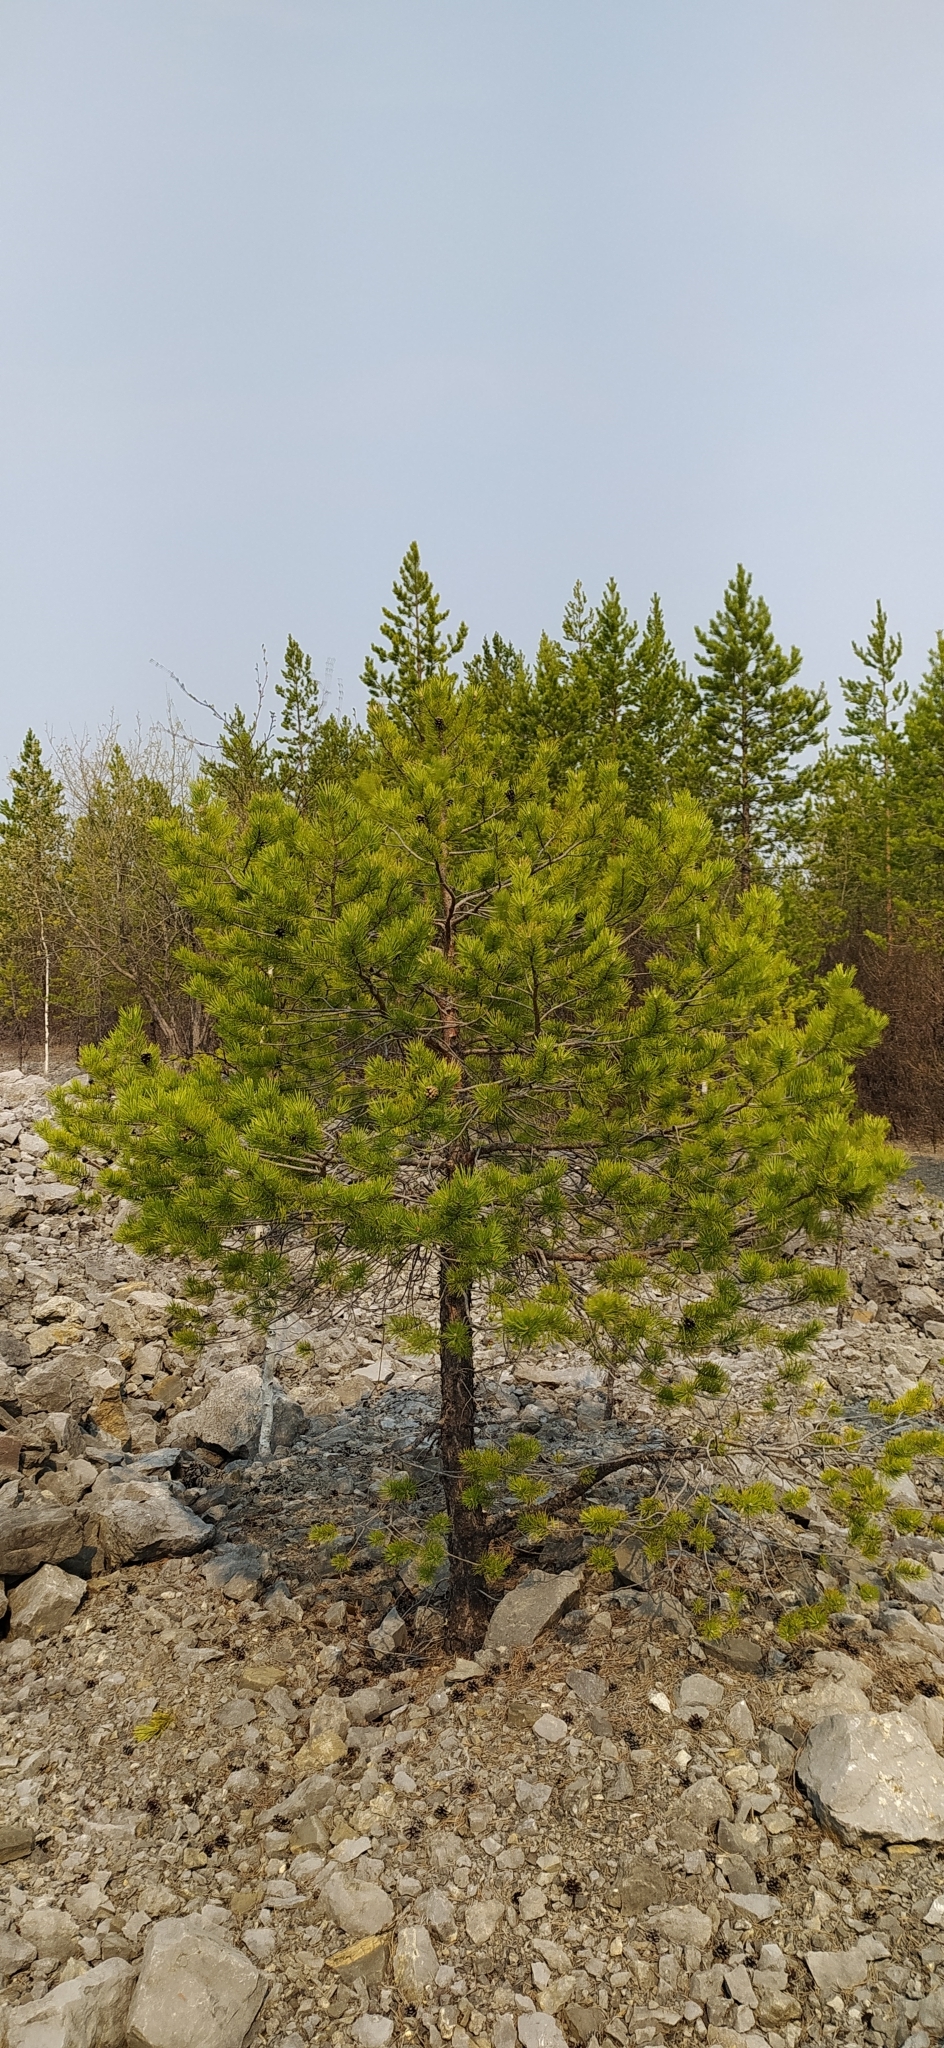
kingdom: Plantae
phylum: Tracheophyta
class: Pinopsida
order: Pinales
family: Pinaceae
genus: Pinus
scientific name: Pinus sylvestris
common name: Scots pine
